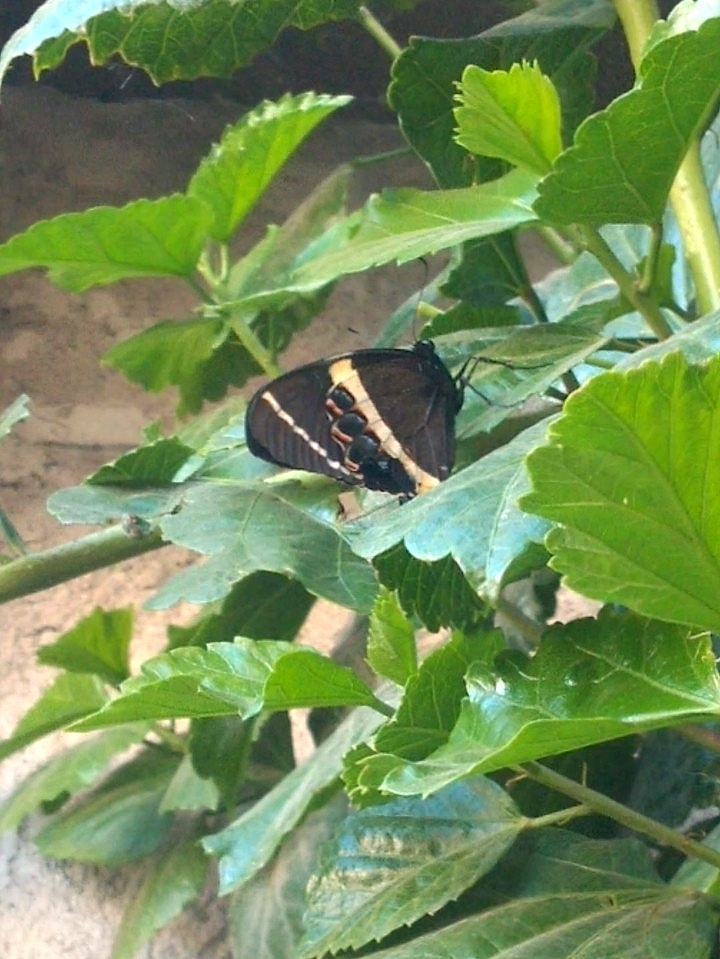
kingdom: Animalia
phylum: Arthropoda
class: Insecta
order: Lepidoptera
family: Papilionidae
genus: Papilio
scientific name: Papilio garamas
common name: Magnificent swallowtail
